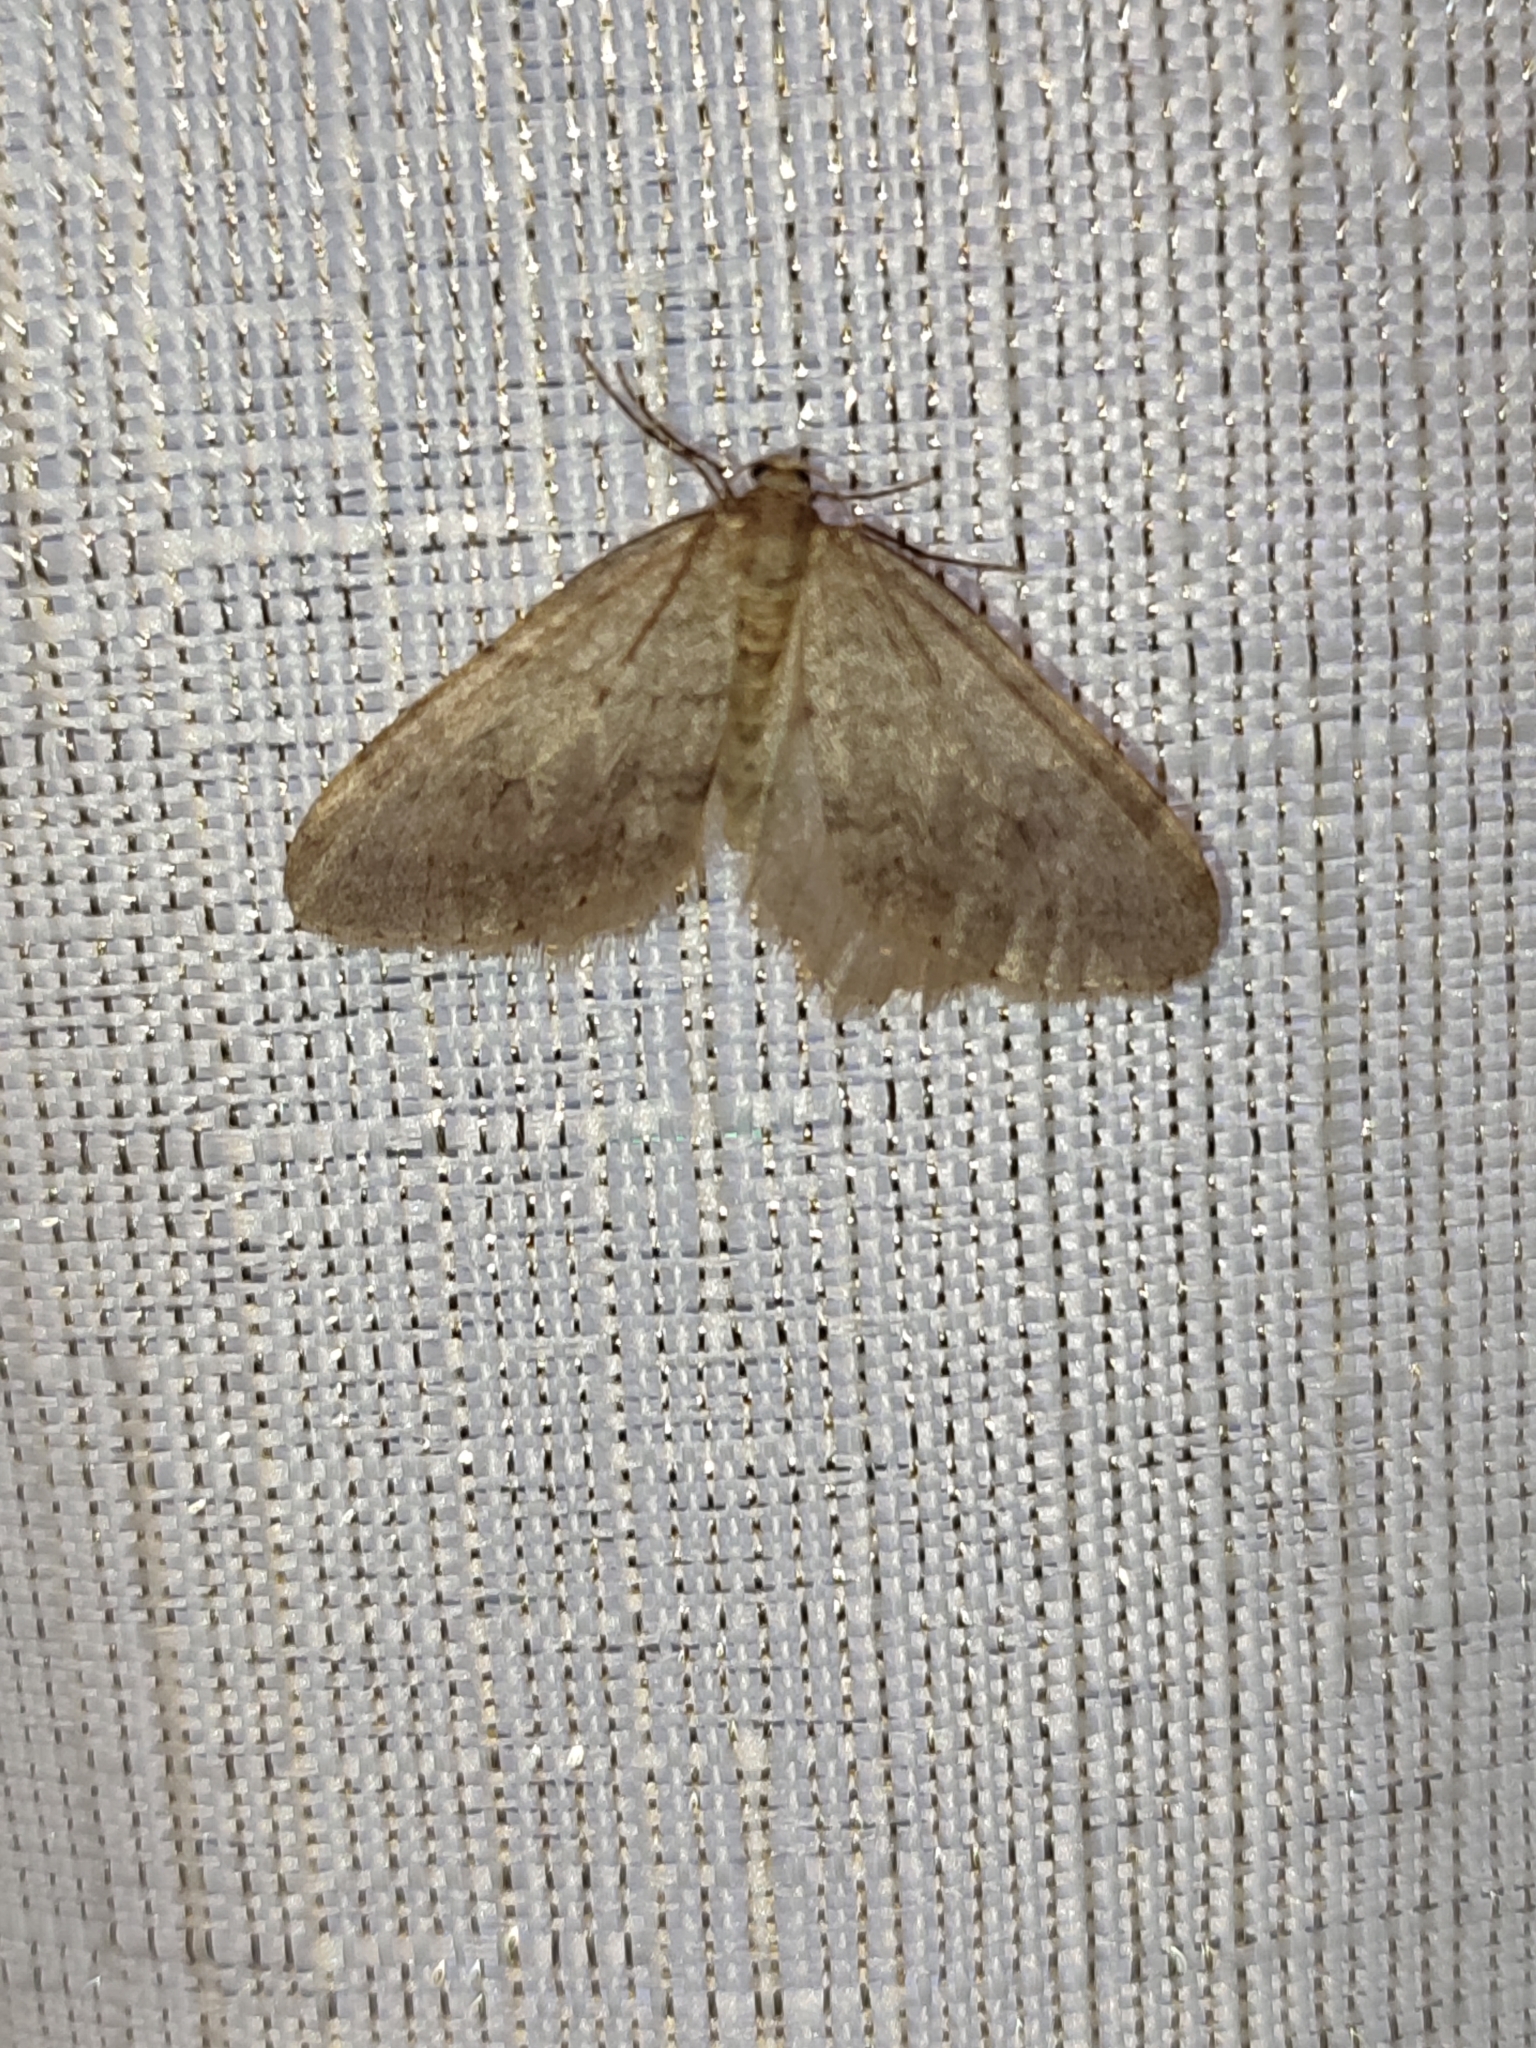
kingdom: Animalia
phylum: Arthropoda
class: Insecta
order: Lepidoptera
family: Geometridae
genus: Operophtera
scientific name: Operophtera fagata
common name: Northern winter moth
